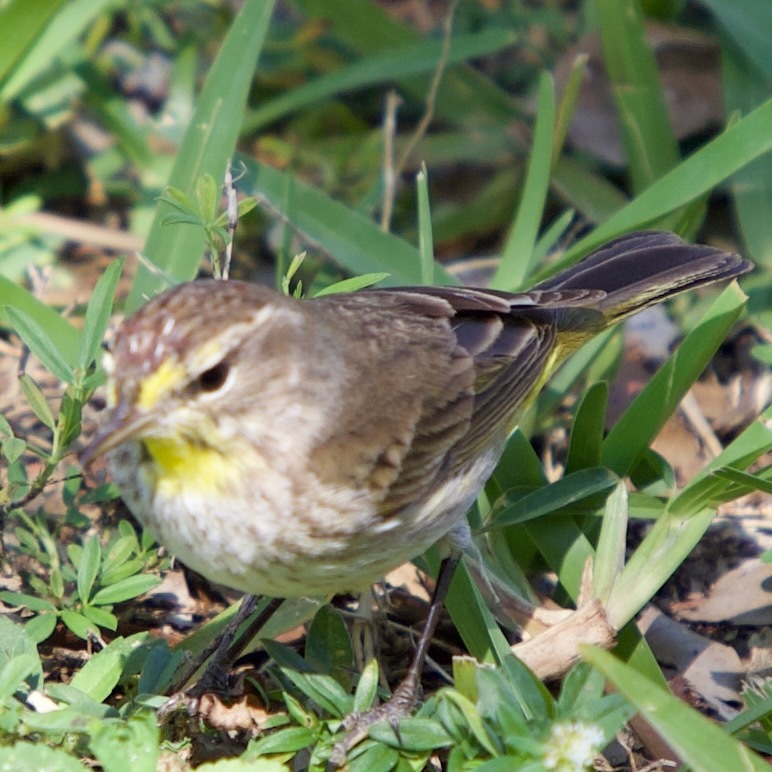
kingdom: Animalia
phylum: Chordata
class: Aves
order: Passeriformes
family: Parulidae
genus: Setophaga
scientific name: Setophaga palmarum
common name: Palm warbler
